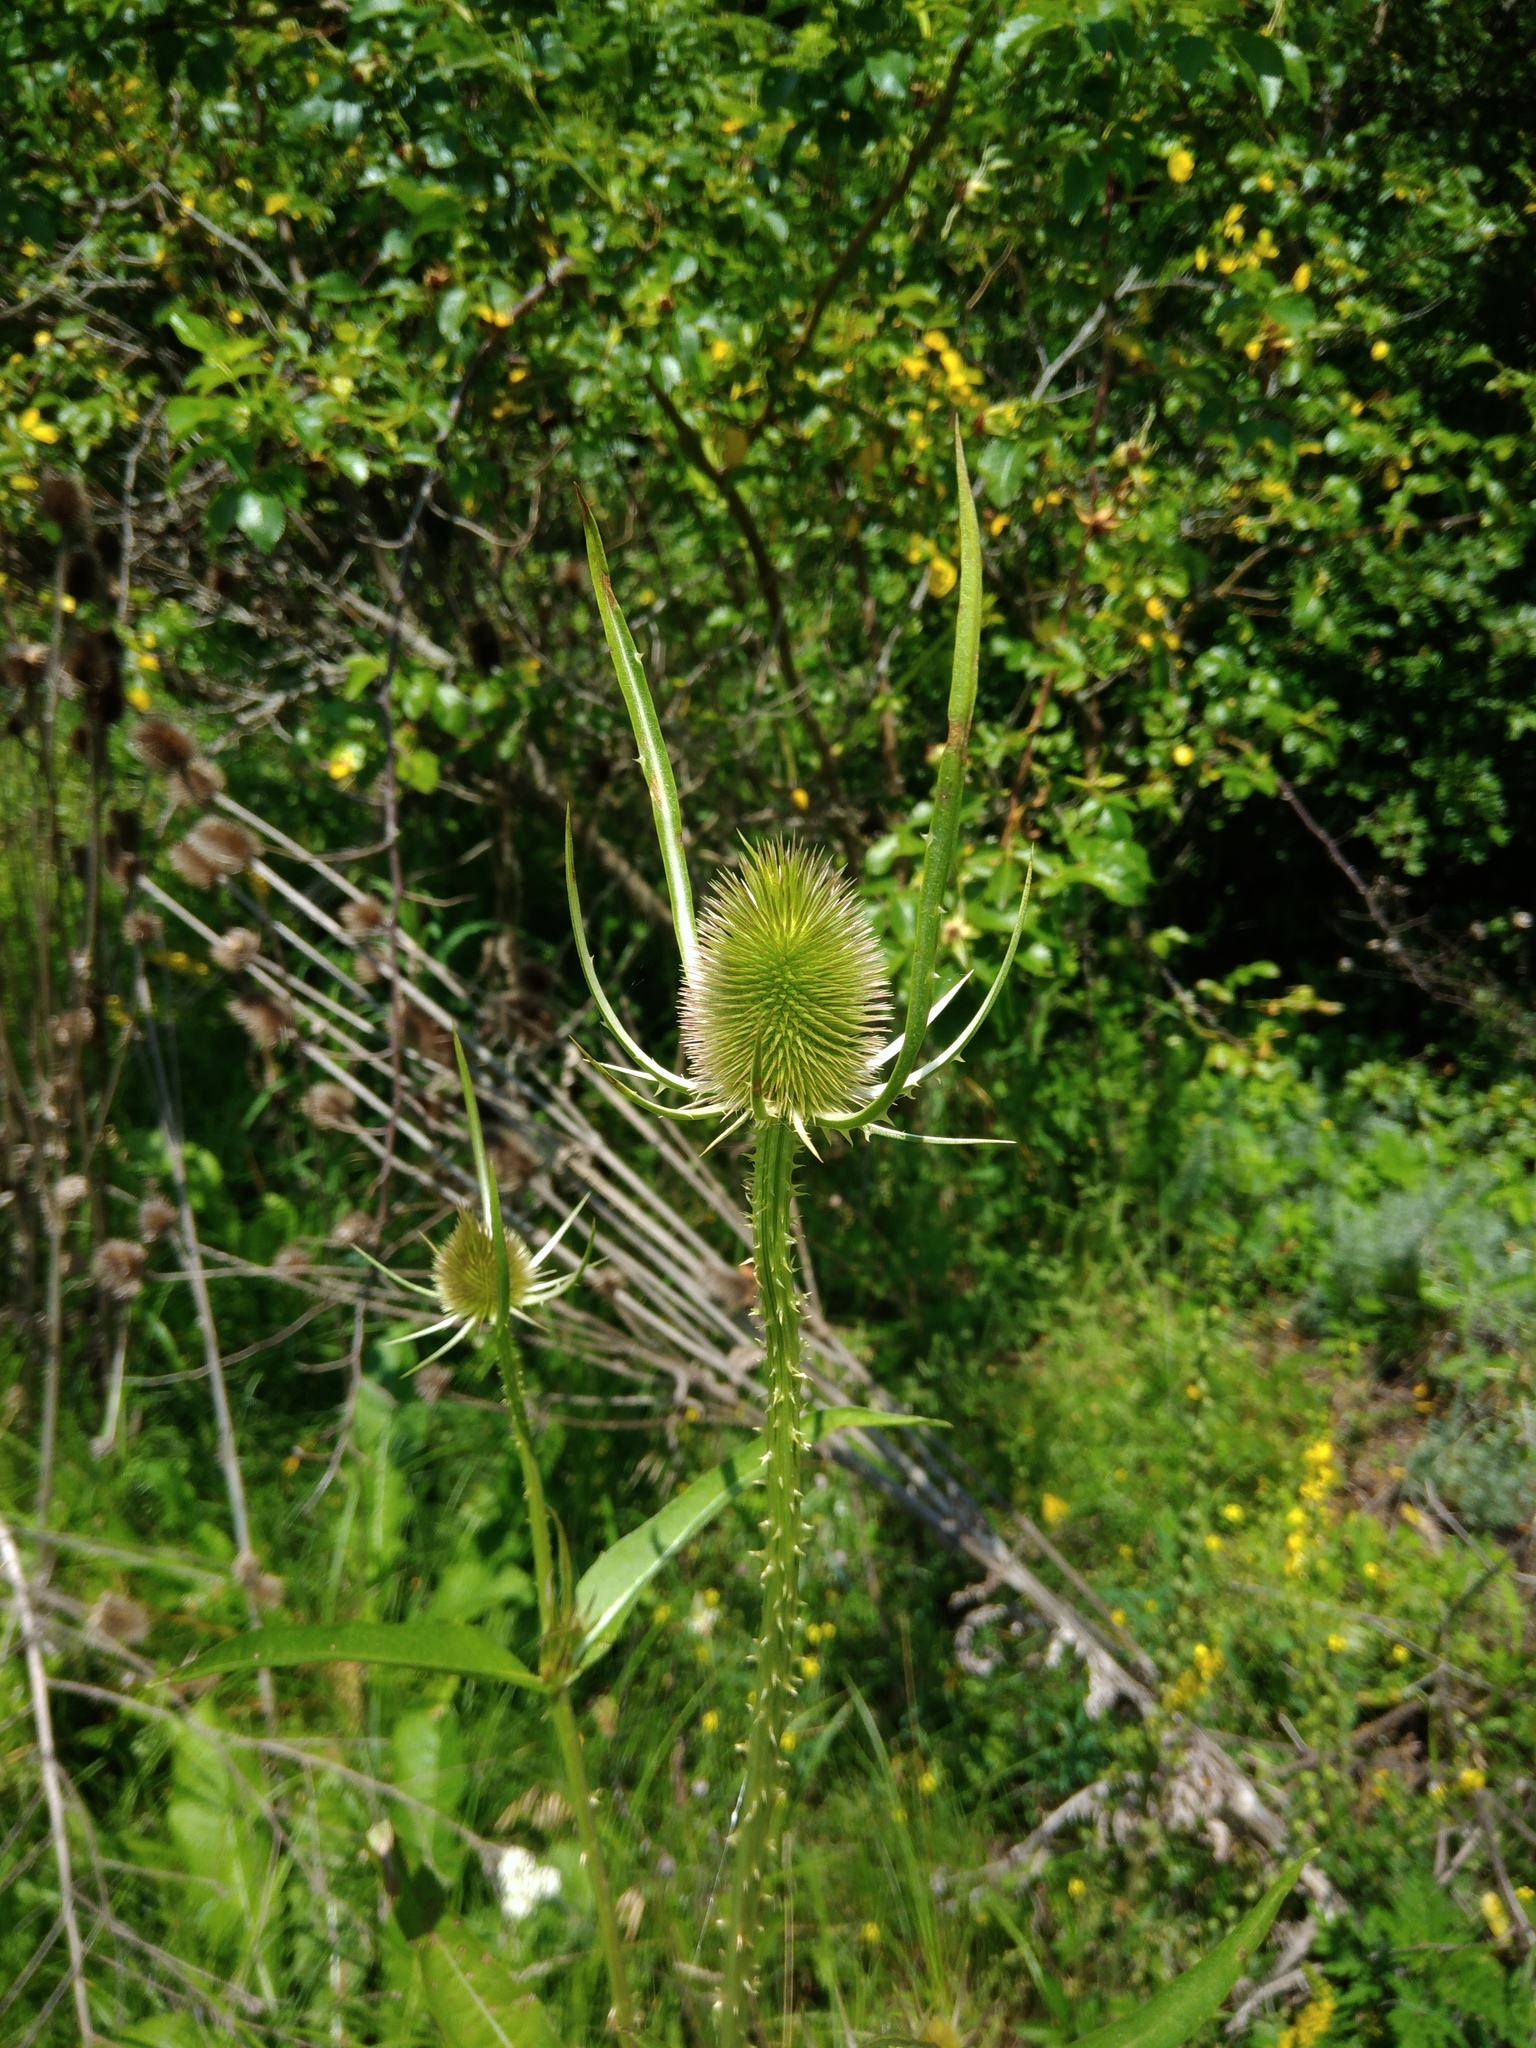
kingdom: Plantae
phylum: Tracheophyta
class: Magnoliopsida
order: Dipsacales
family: Caprifoliaceae
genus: Dipsacus
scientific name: Dipsacus fullonum
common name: Teasel
